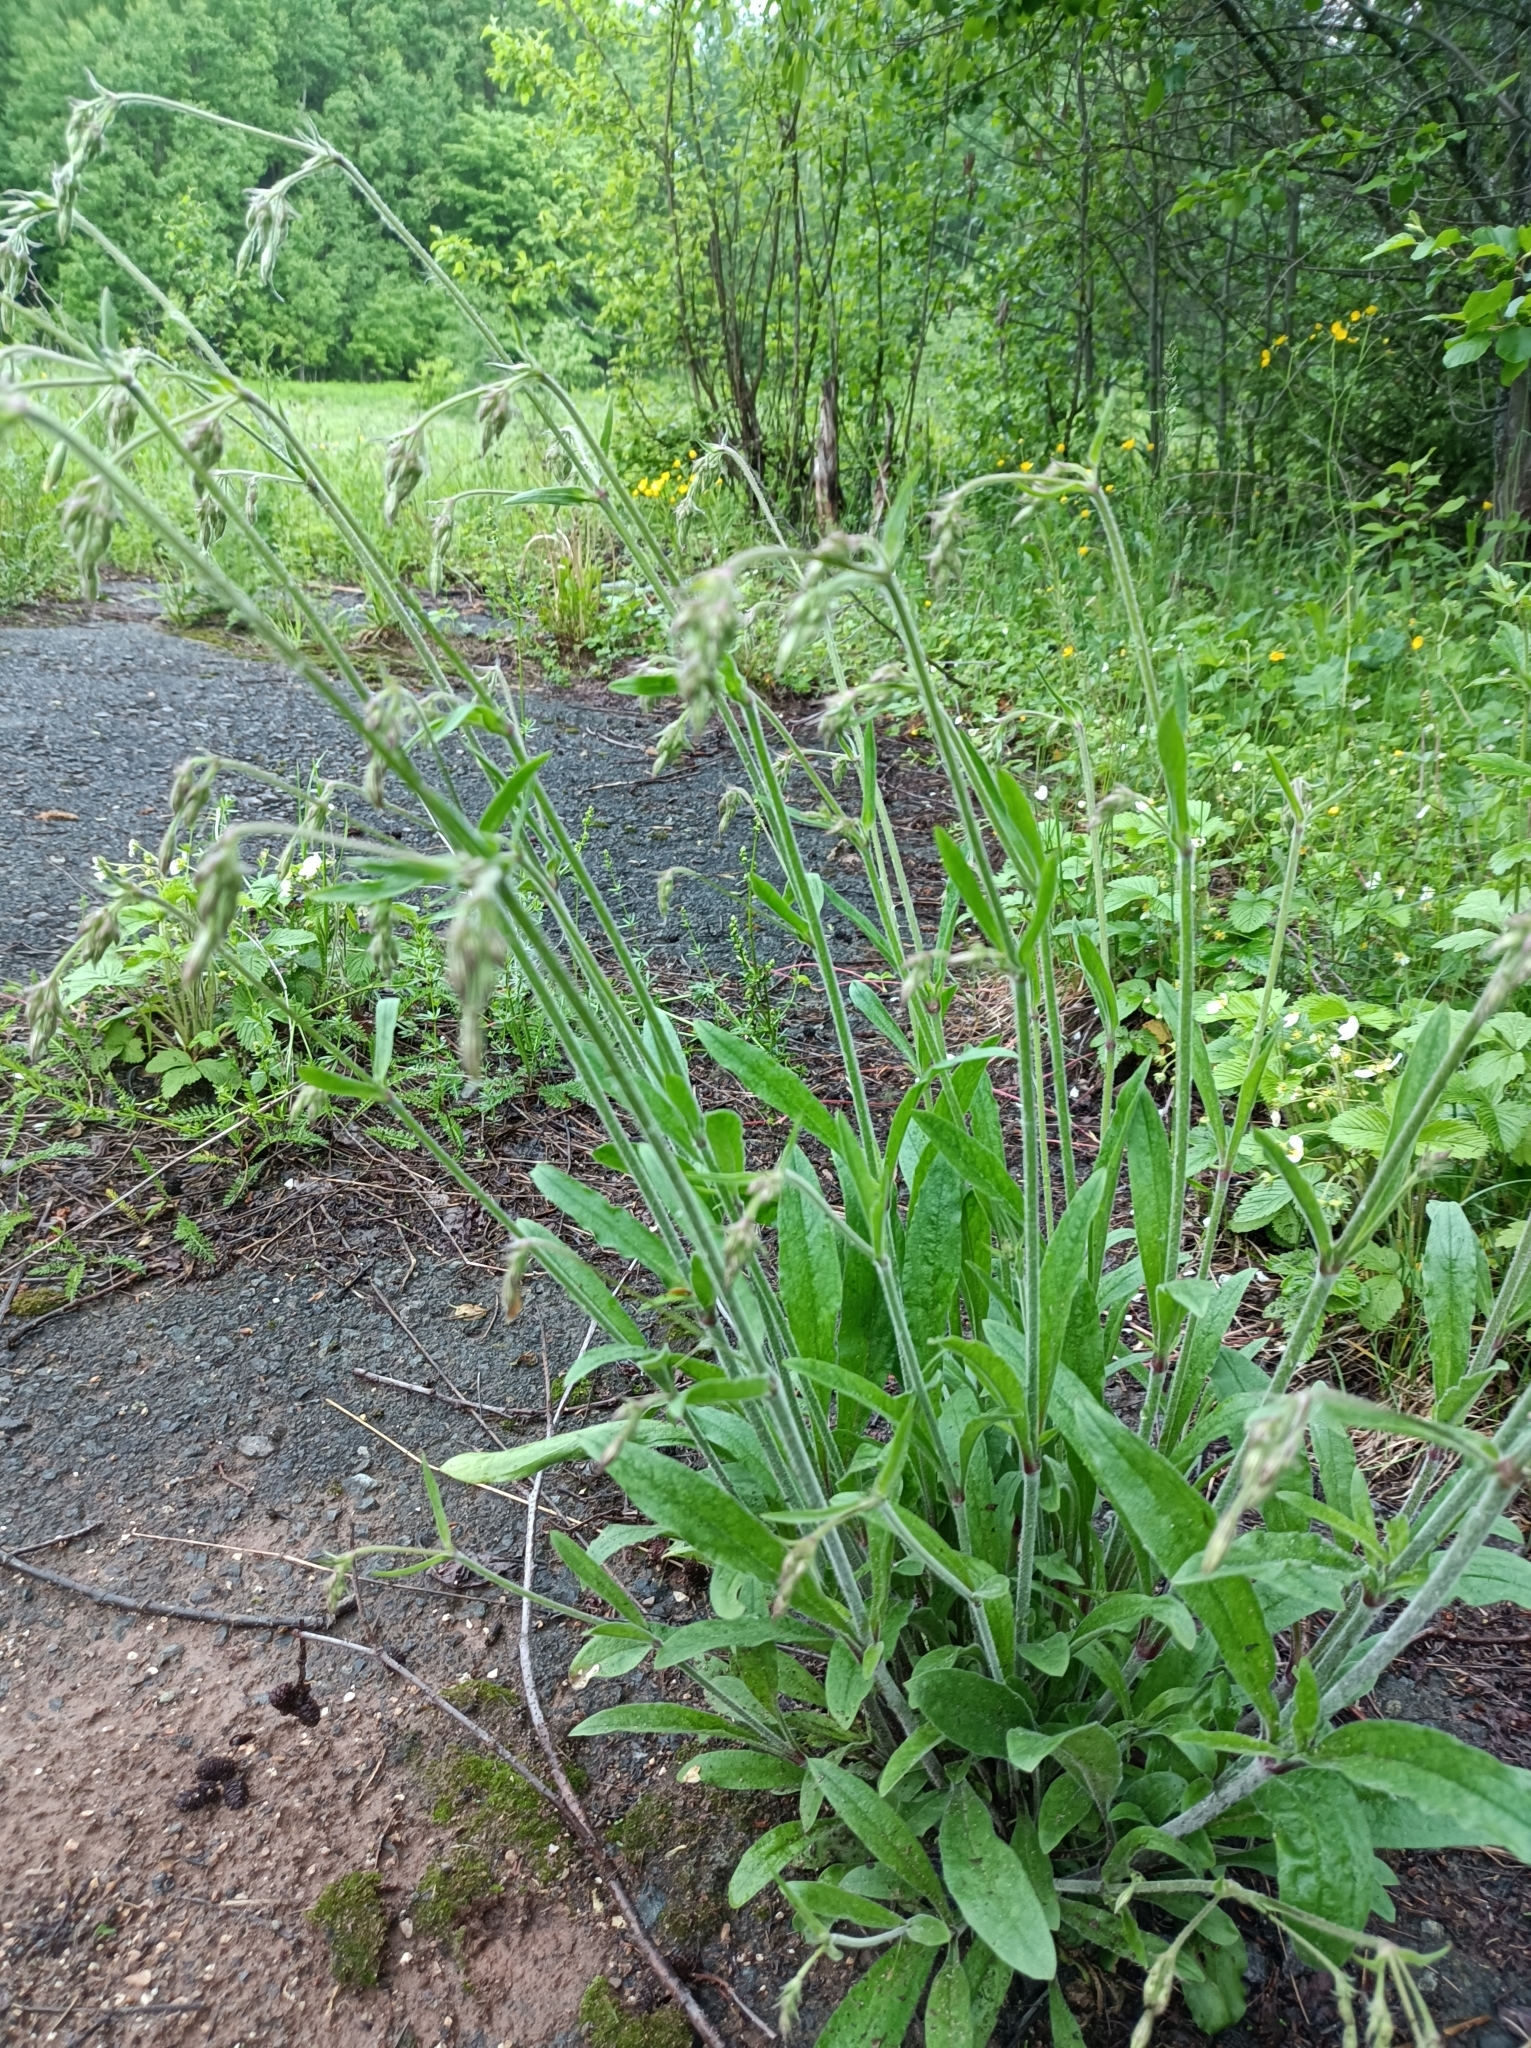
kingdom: Plantae
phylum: Tracheophyta
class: Magnoliopsida
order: Caryophyllales
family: Caryophyllaceae
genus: Silene
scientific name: Silene nutans
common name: Nottingham catchfly
